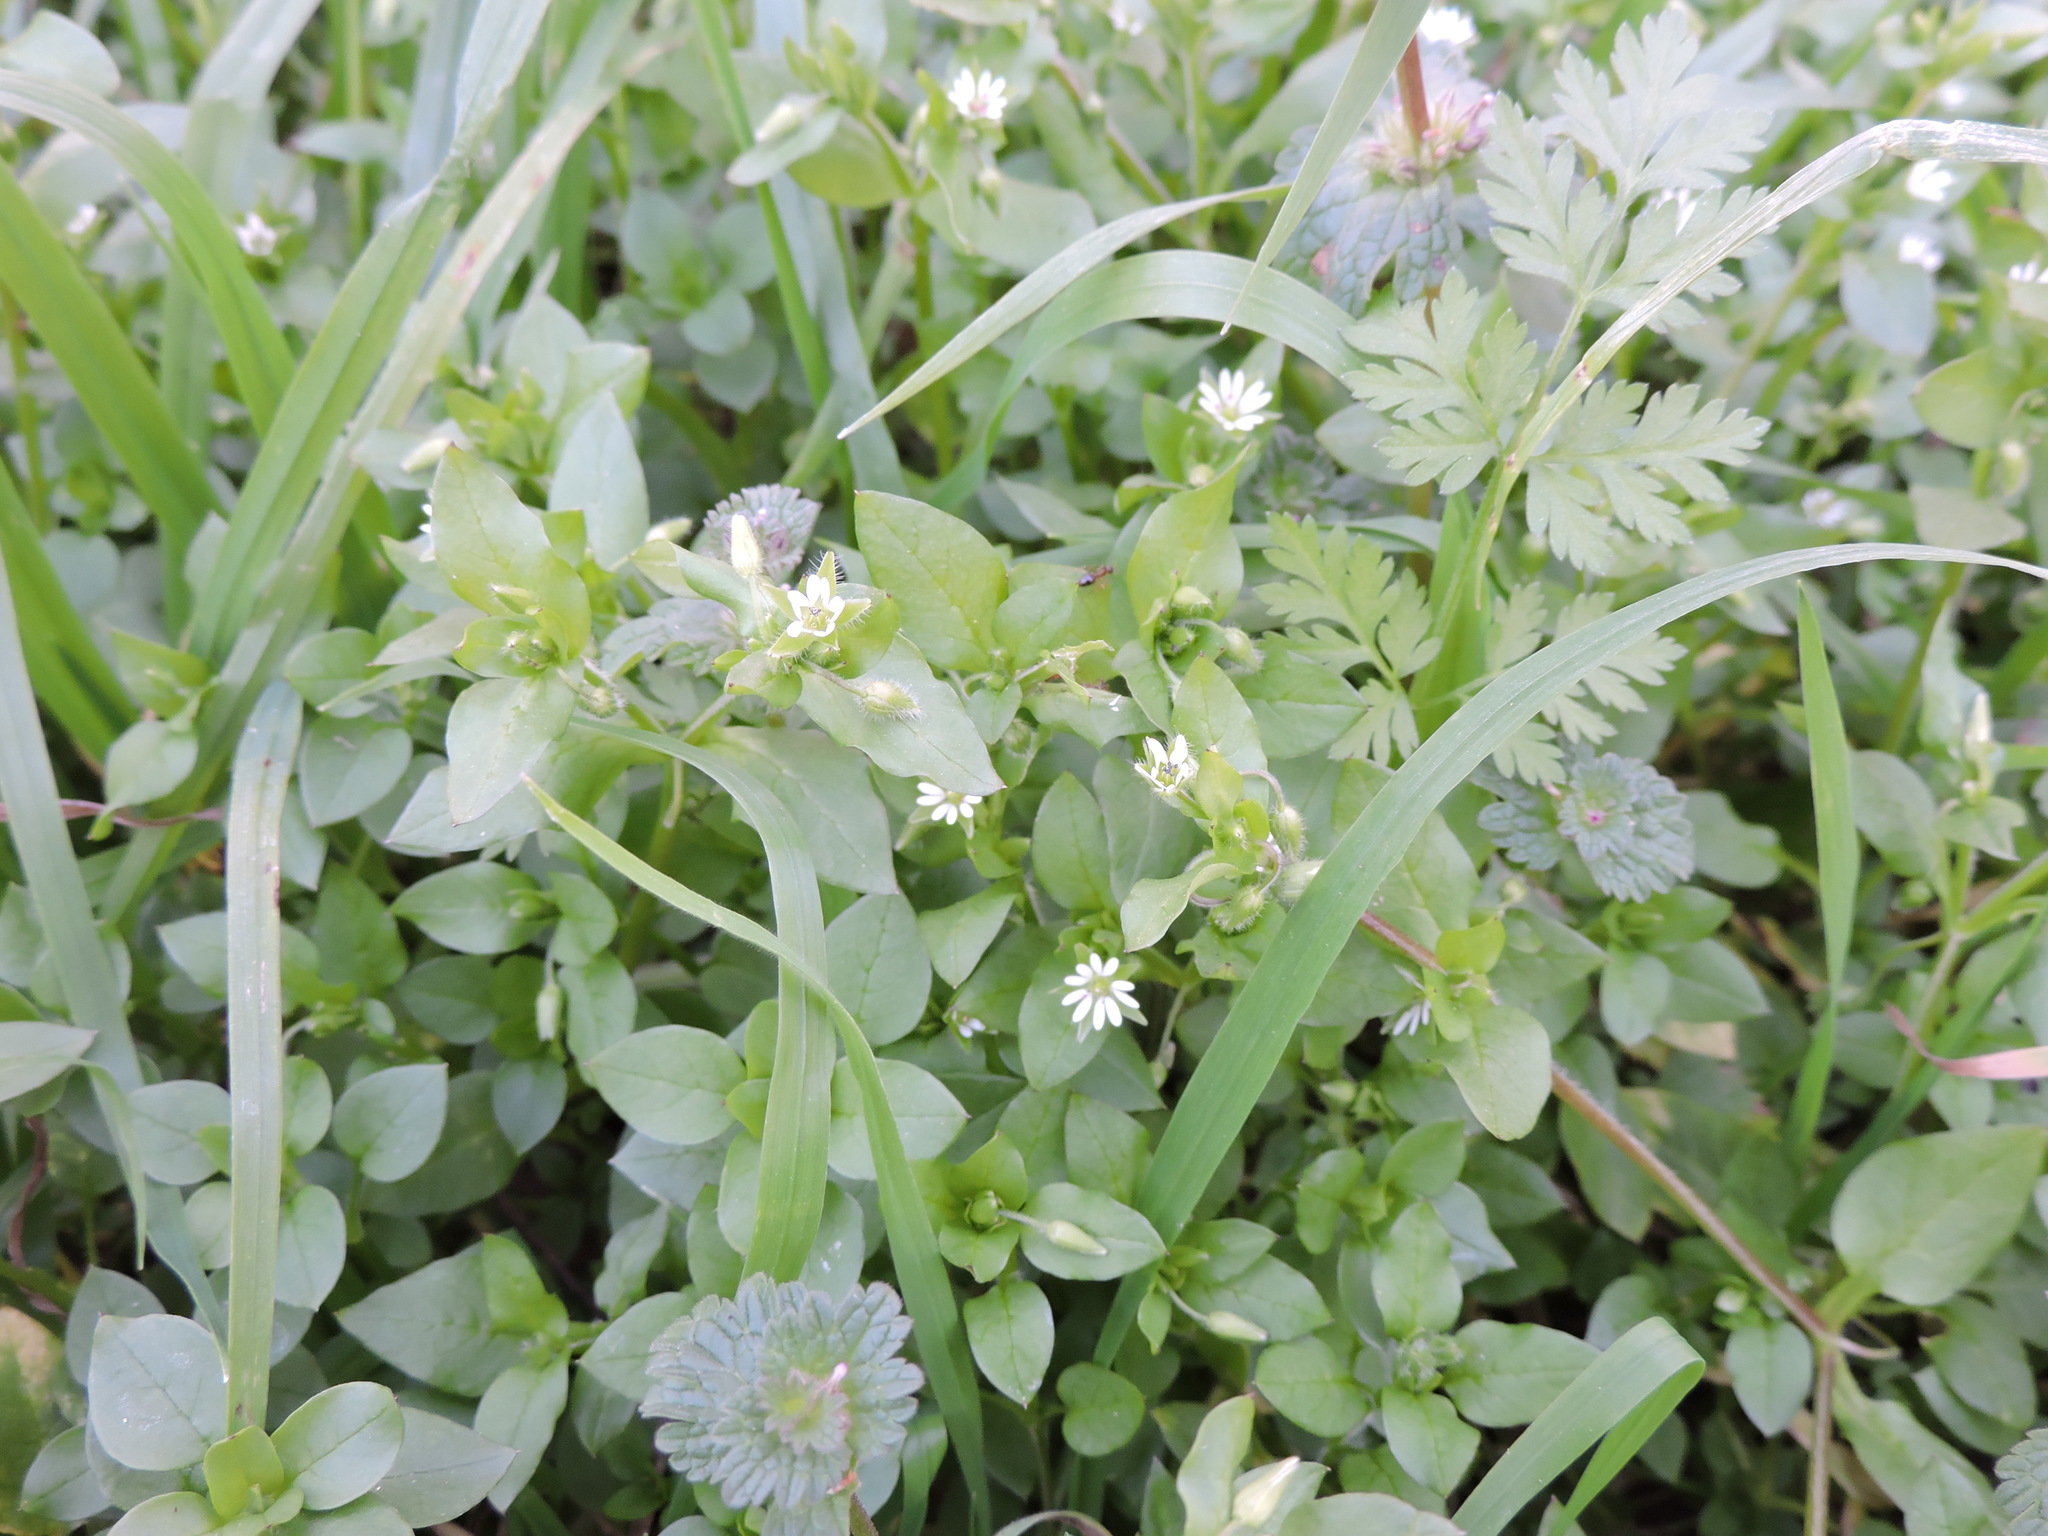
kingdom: Plantae
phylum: Tracheophyta
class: Magnoliopsida
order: Caryophyllales
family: Caryophyllaceae
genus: Stellaria
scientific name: Stellaria media
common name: Common chickweed
